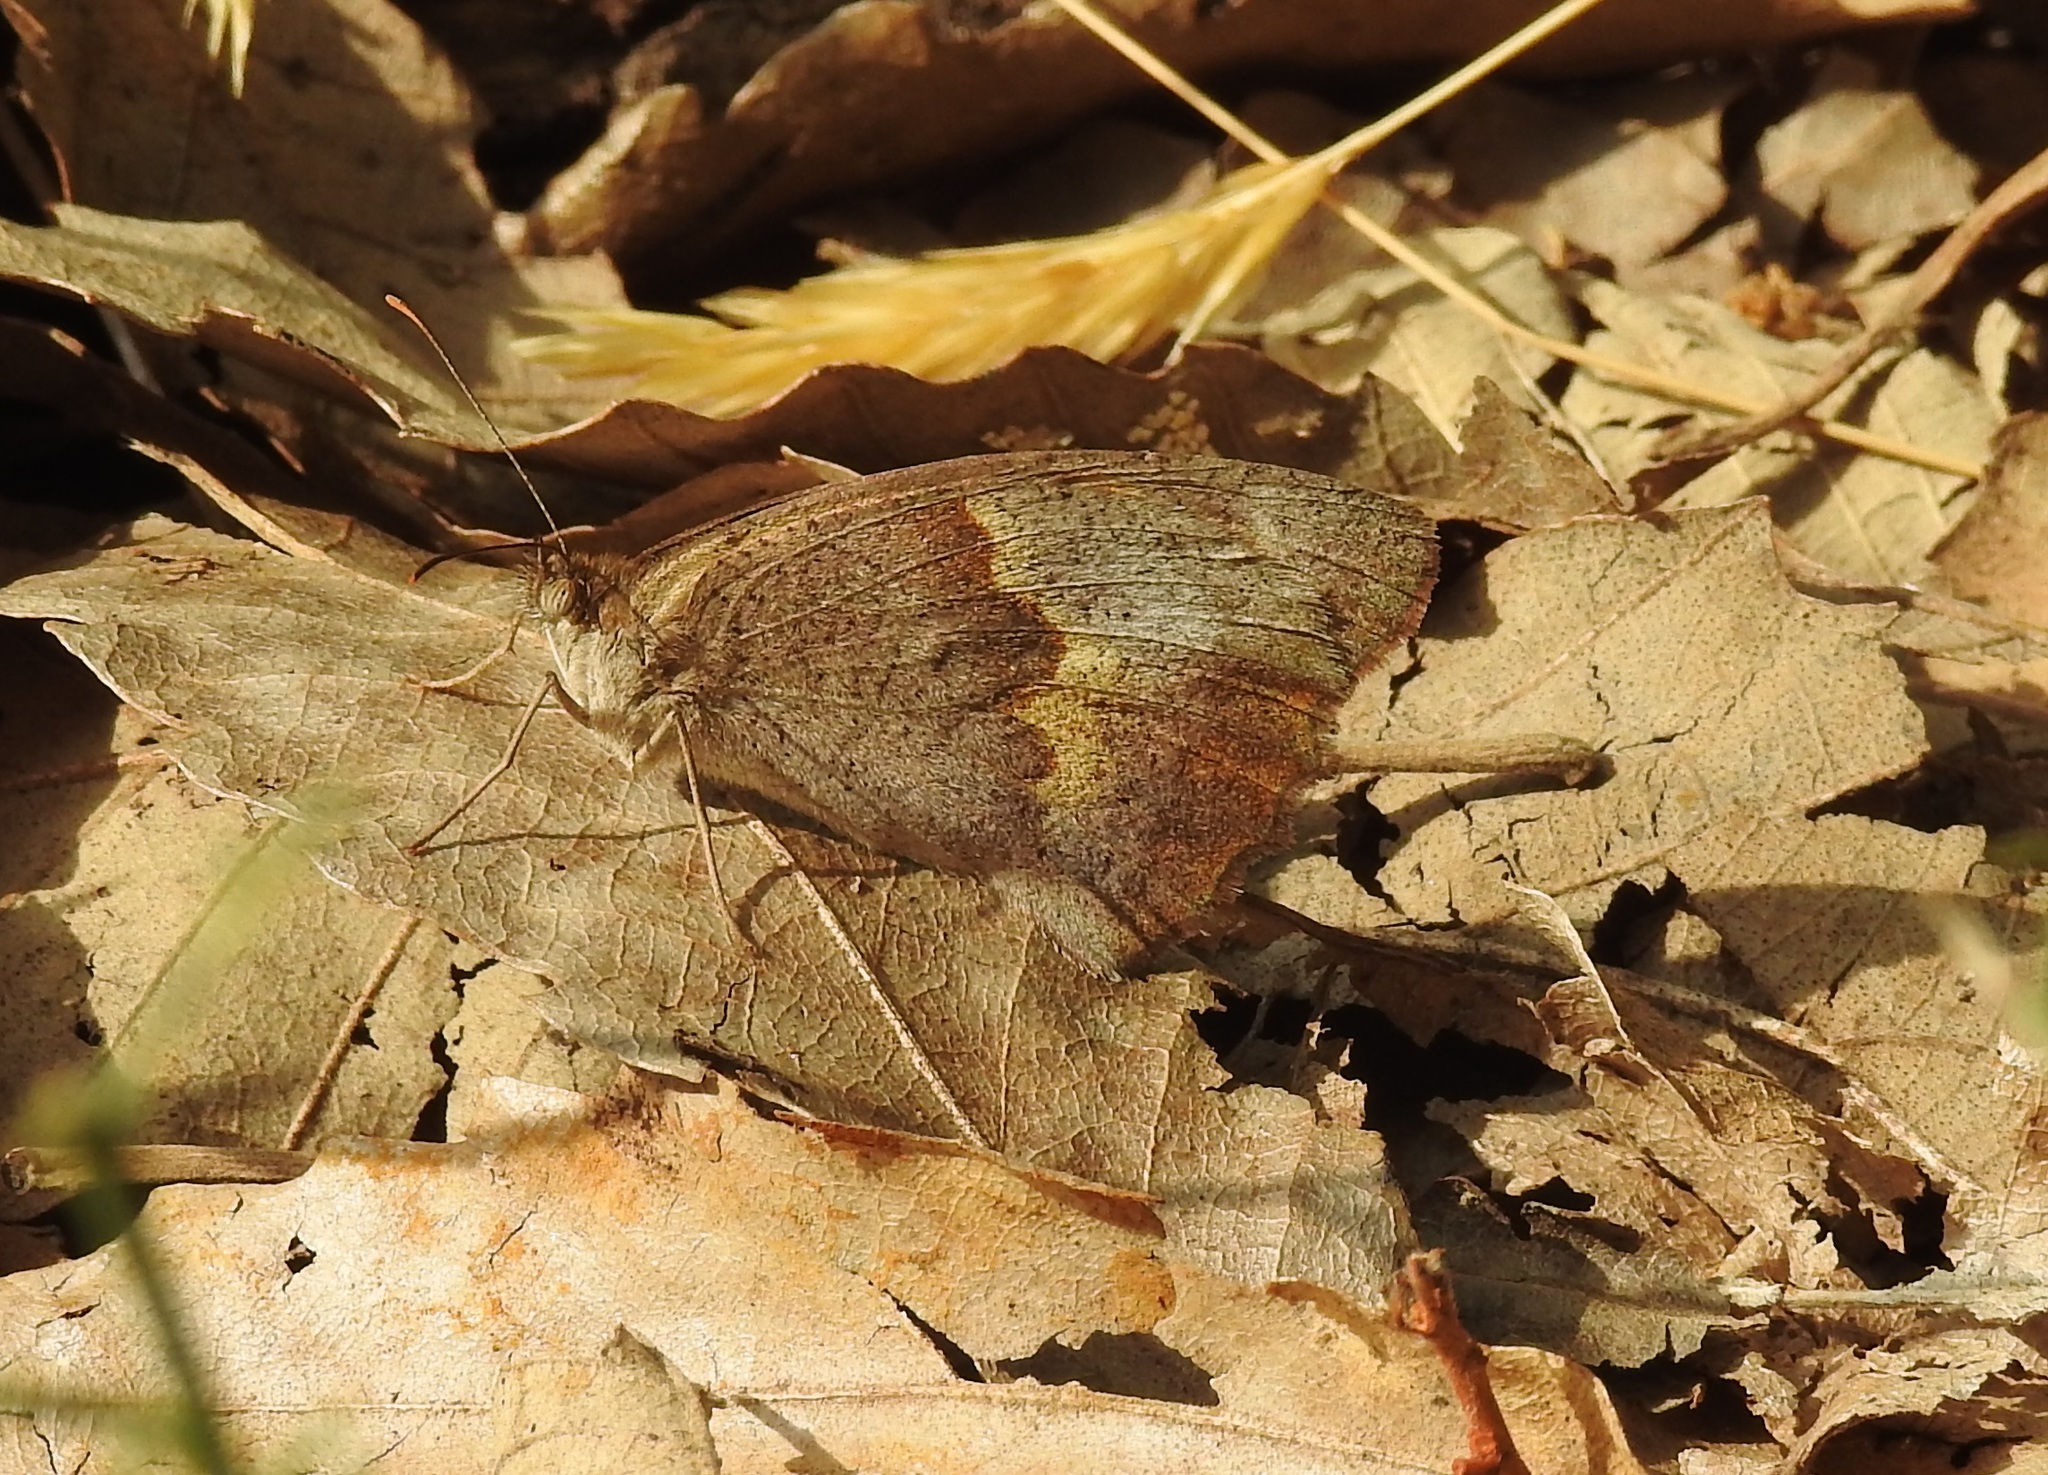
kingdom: Animalia
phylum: Arthropoda
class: Insecta
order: Lepidoptera
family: Nymphalidae
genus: Maniola
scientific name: Maniola jurtina
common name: Meadow brown
